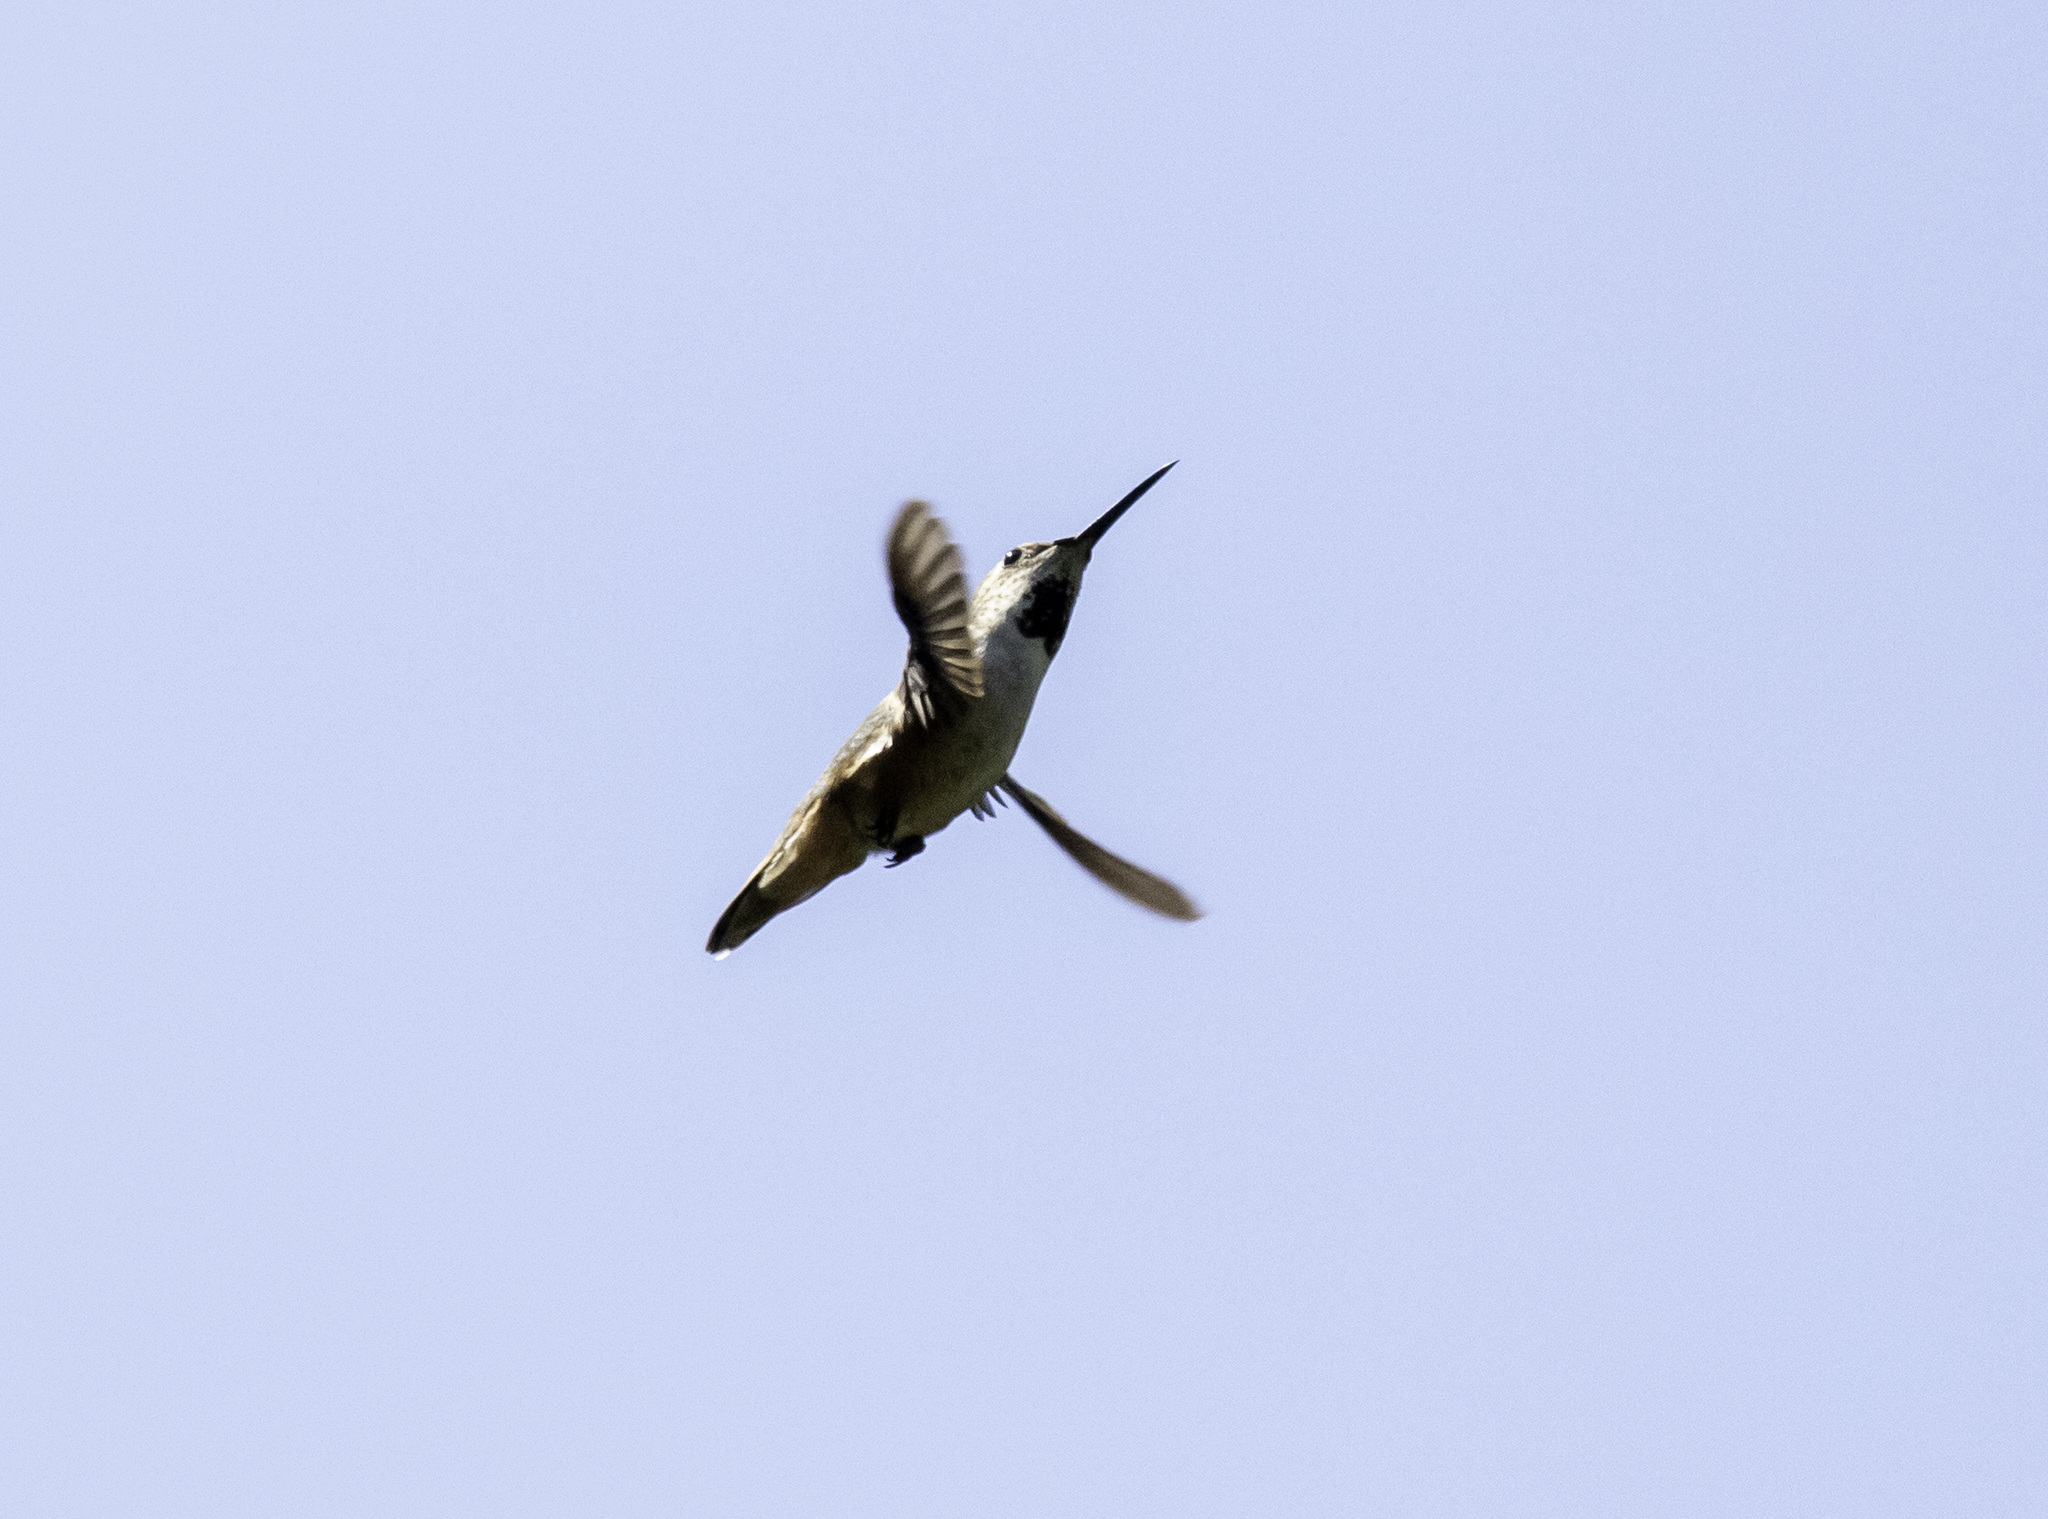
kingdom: Animalia
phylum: Chordata
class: Aves
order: Apodiformes
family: Trochilidae
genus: Selasphorus
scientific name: Selasphorus sasin
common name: Allen's hummingbird
